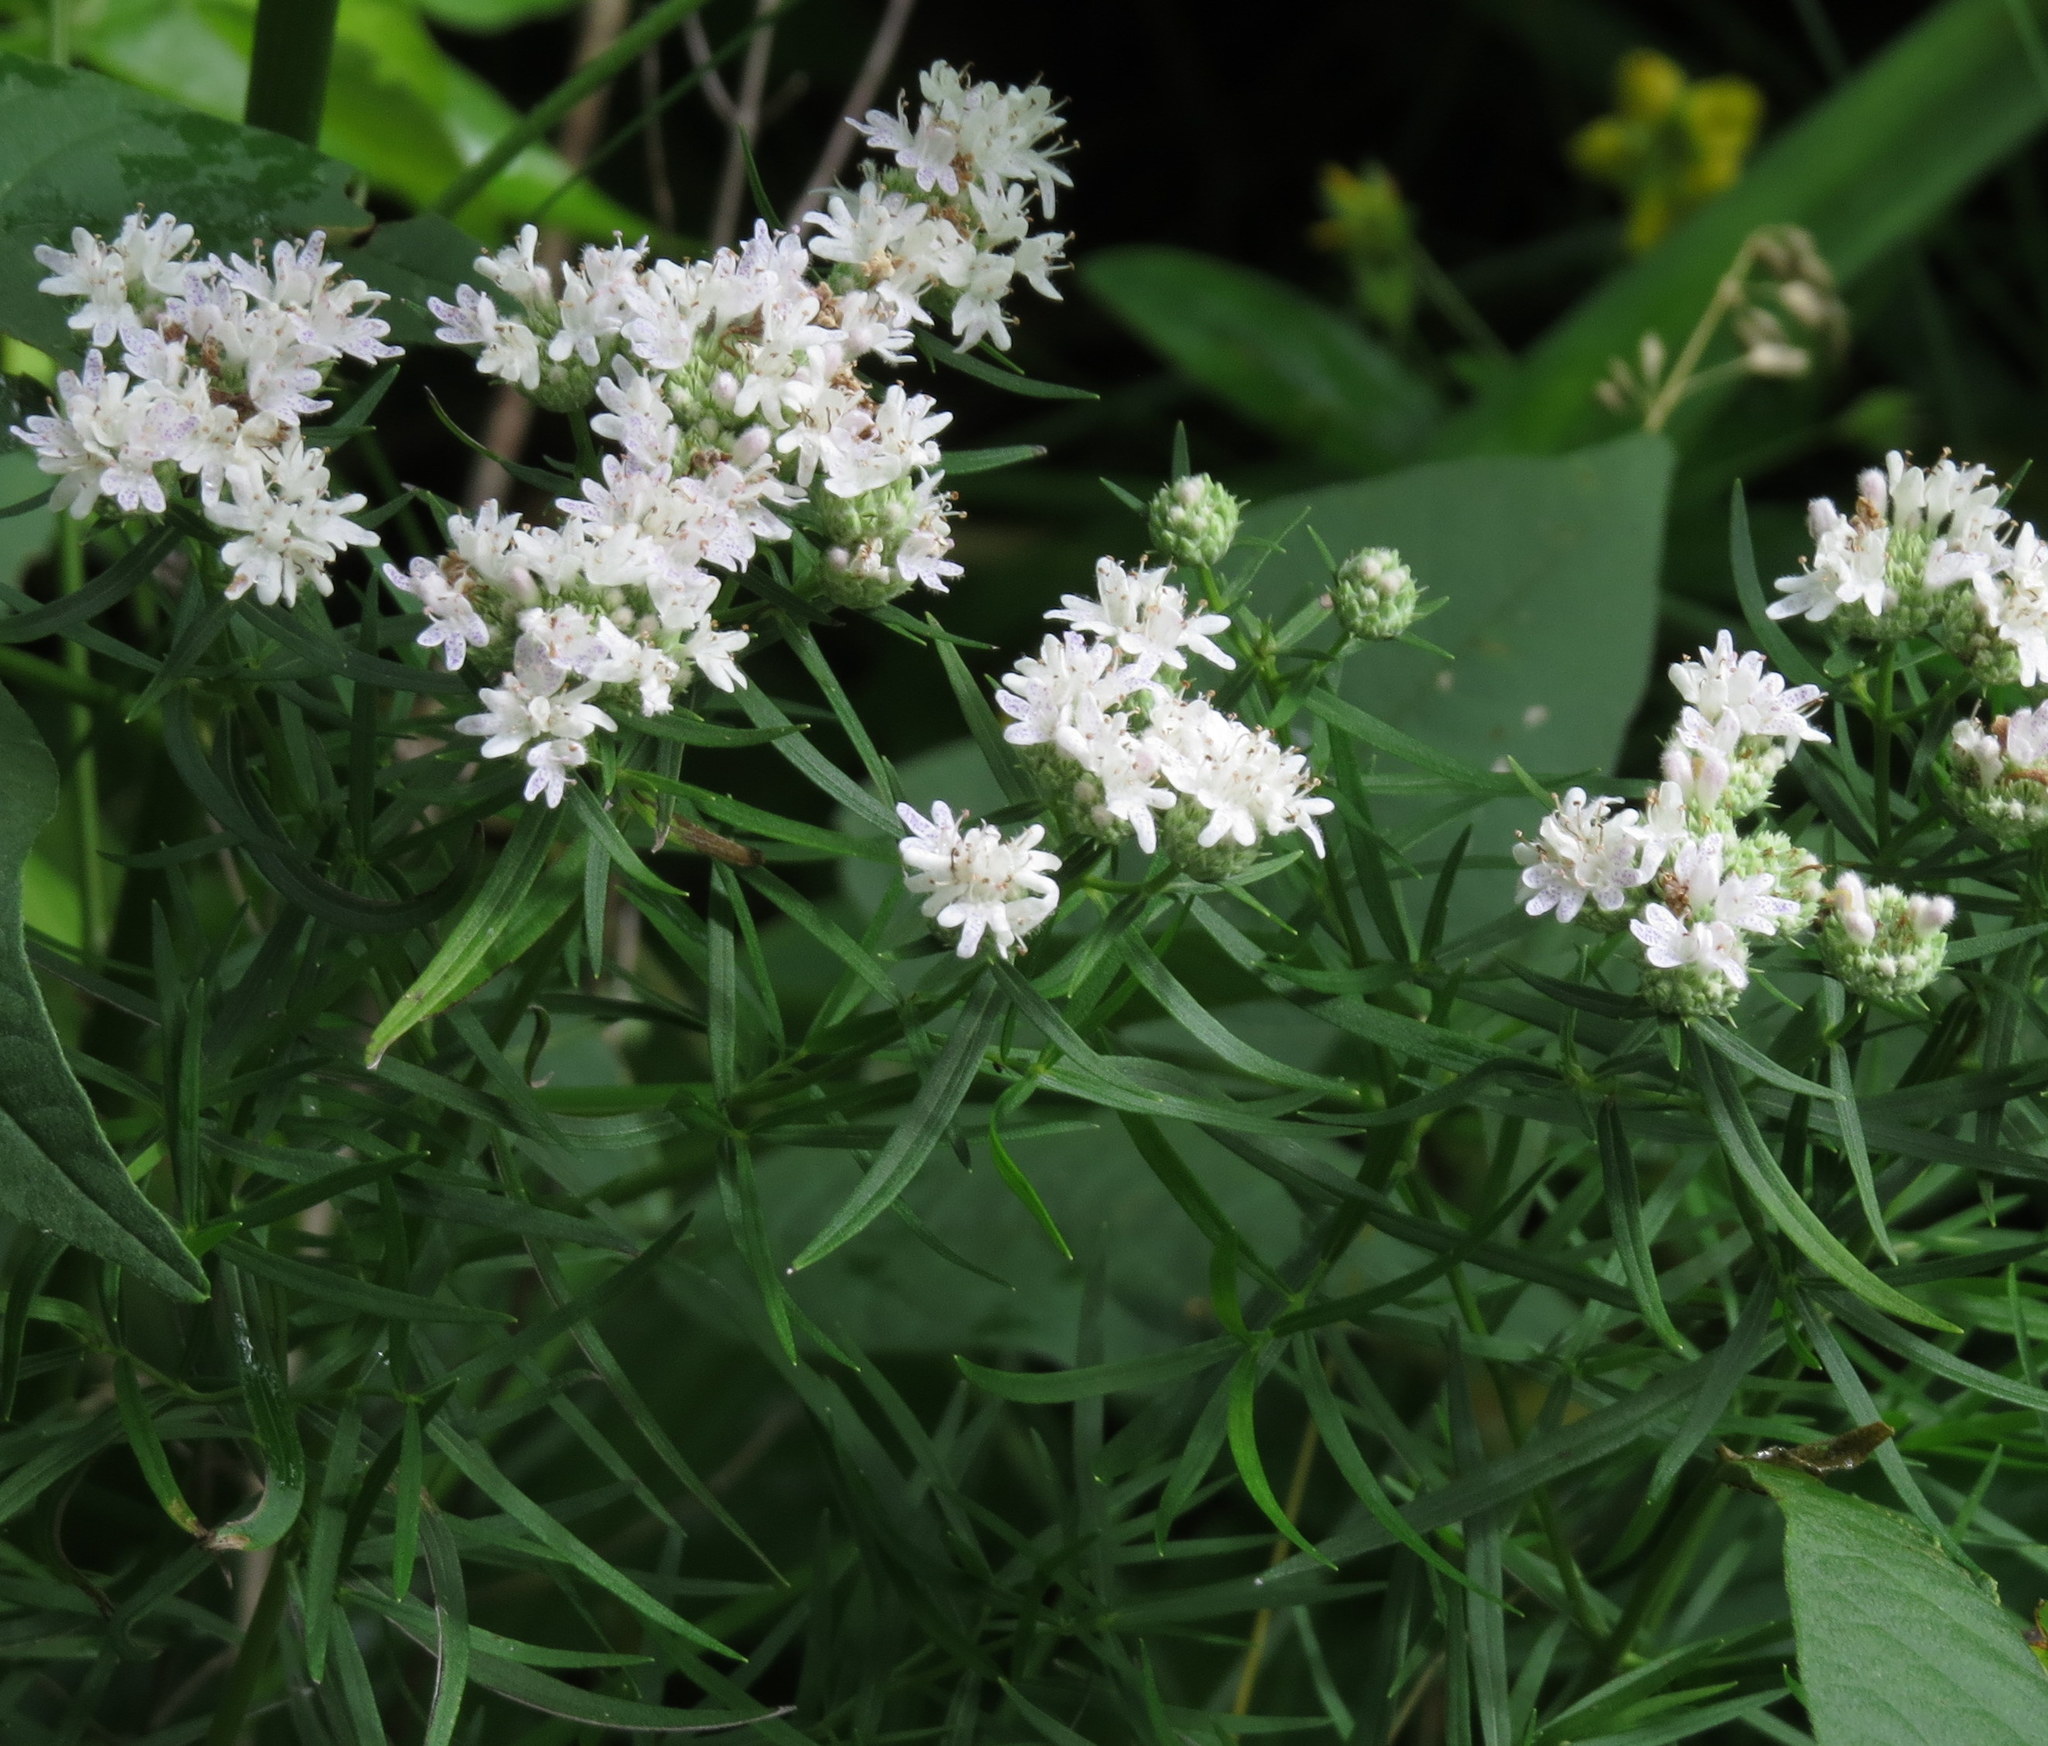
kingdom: Plantae
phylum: Tracheophyta
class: Magnoliopsida
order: Lamiales
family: Lamiaceae
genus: Pycnanthemum
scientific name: Pycnanthemum tenuifolium
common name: Narrow-leaf mountain-mint
